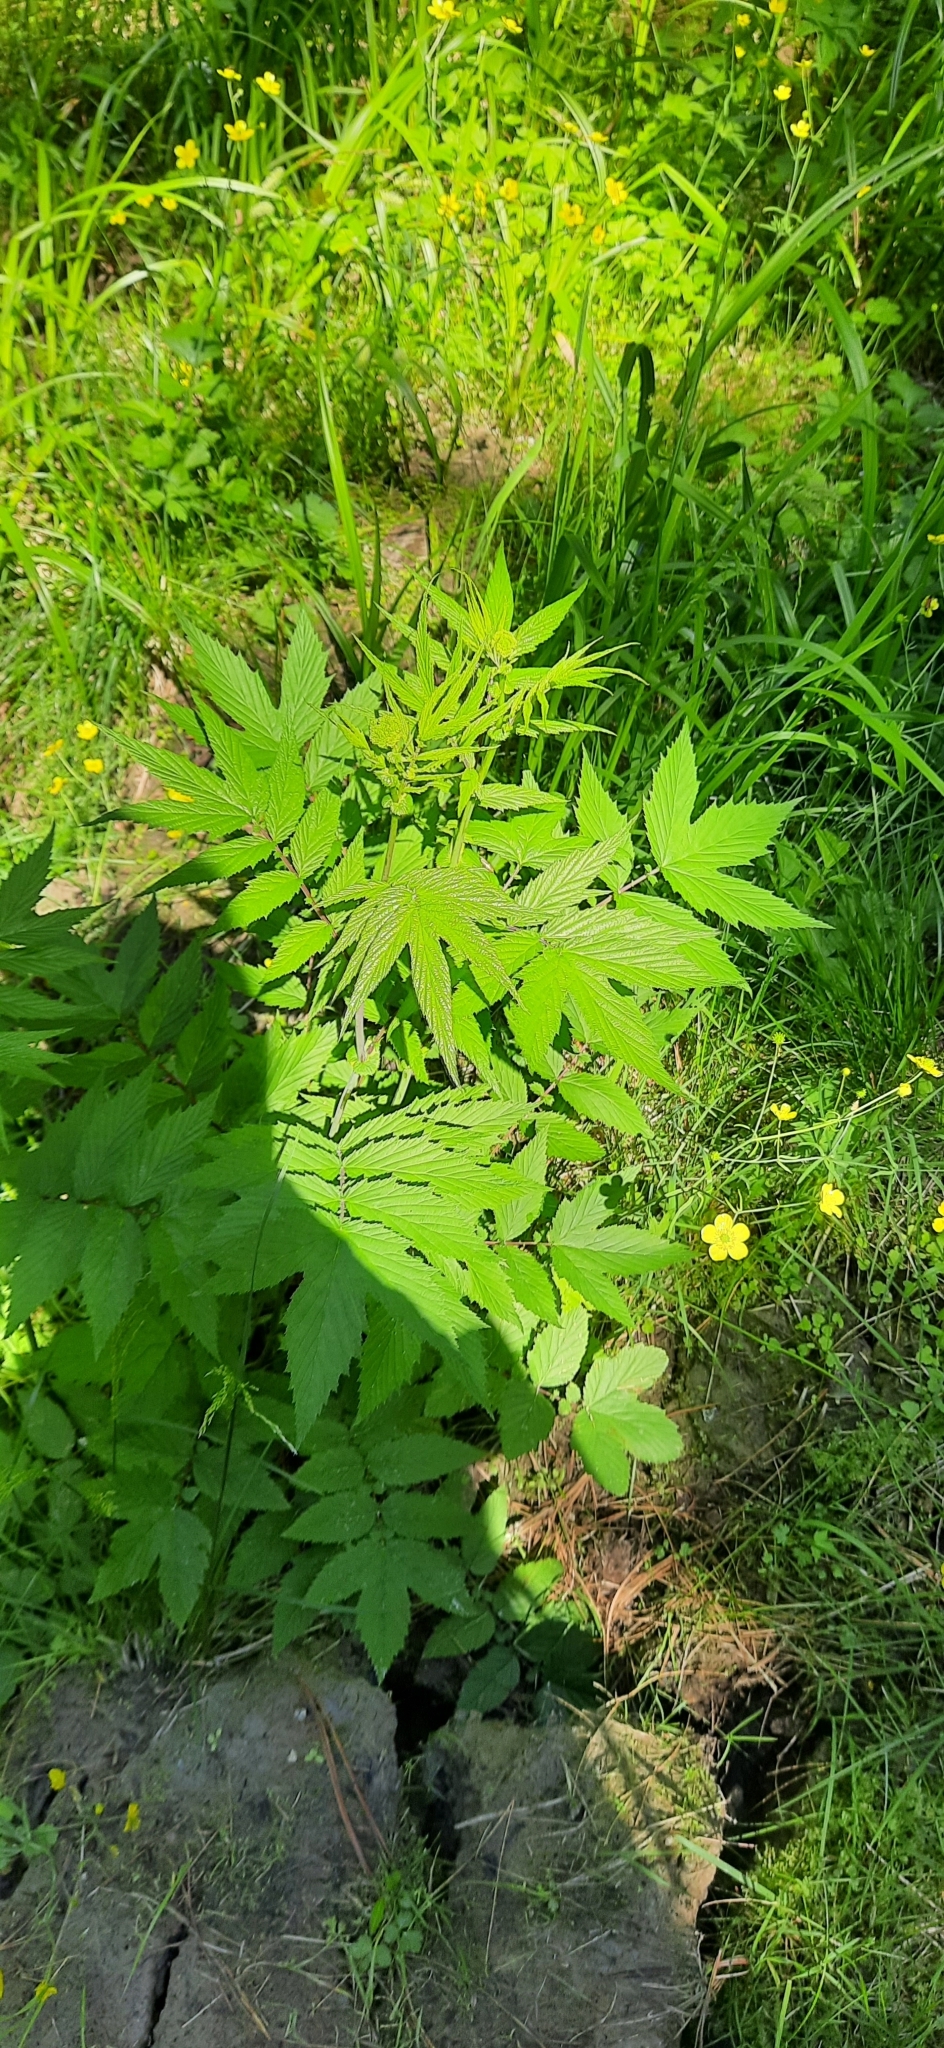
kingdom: Plantae
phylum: Tracheophyta
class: Magnoliopsida
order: Rosales
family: Rosaceae
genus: Filipendula
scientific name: Filipendula ulmaria
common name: Meadowsweet
